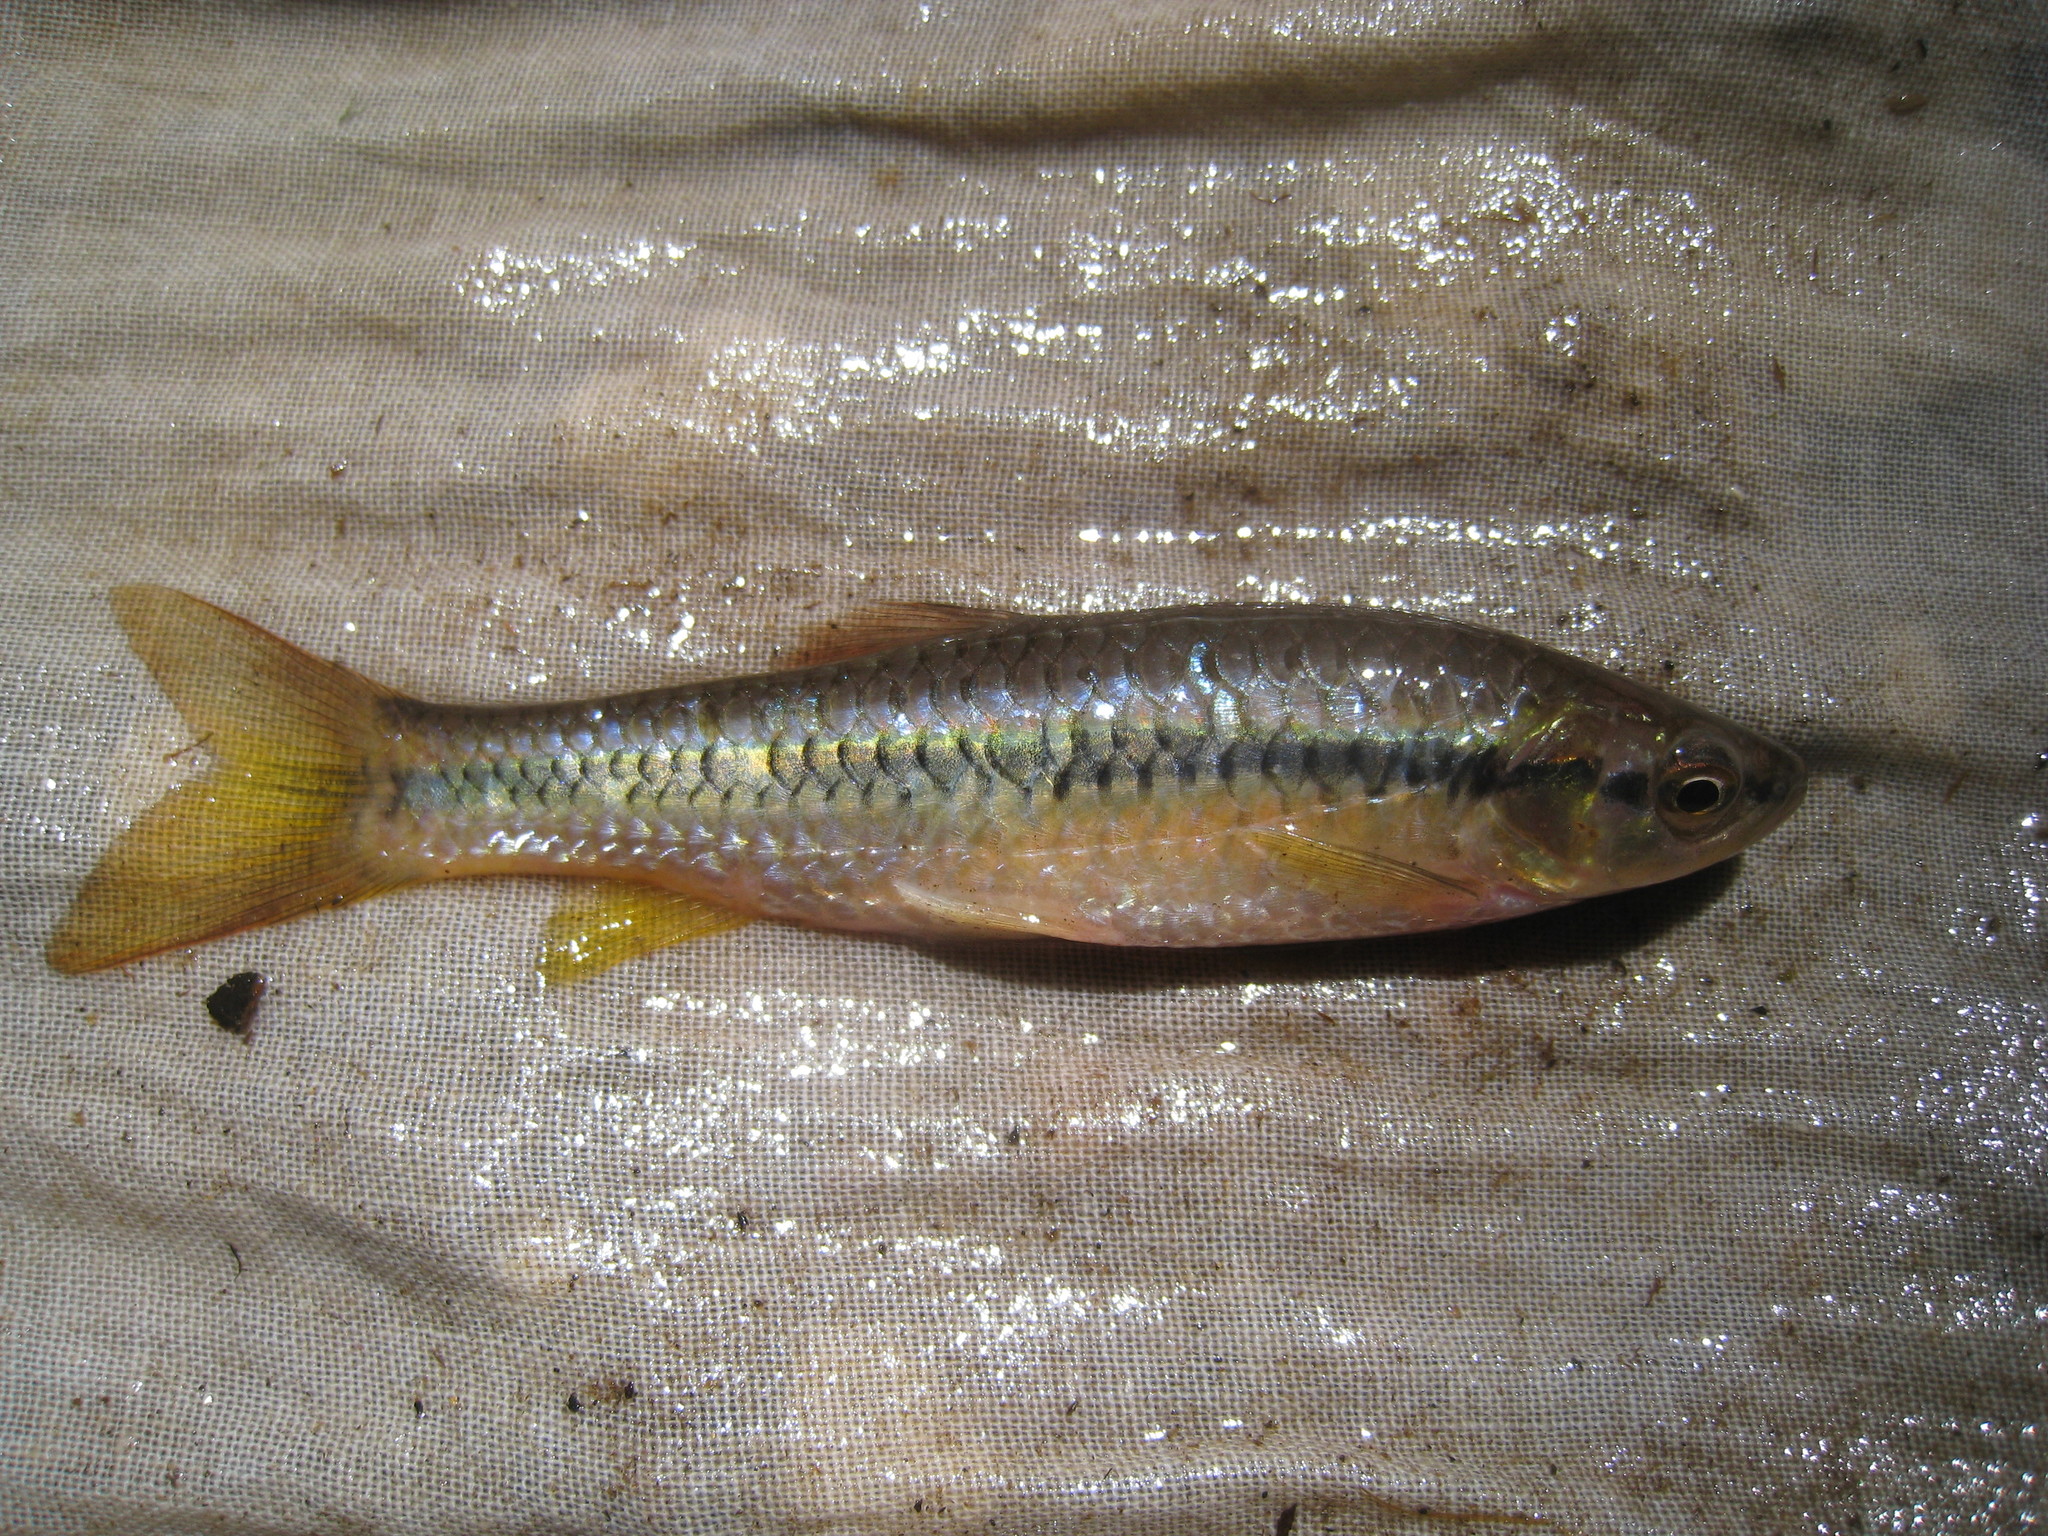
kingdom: Animalia
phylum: Chordata
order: Cypriniformes
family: Cyprinidae
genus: Rasbora
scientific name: Rasbora daniconius
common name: Common rasbora
